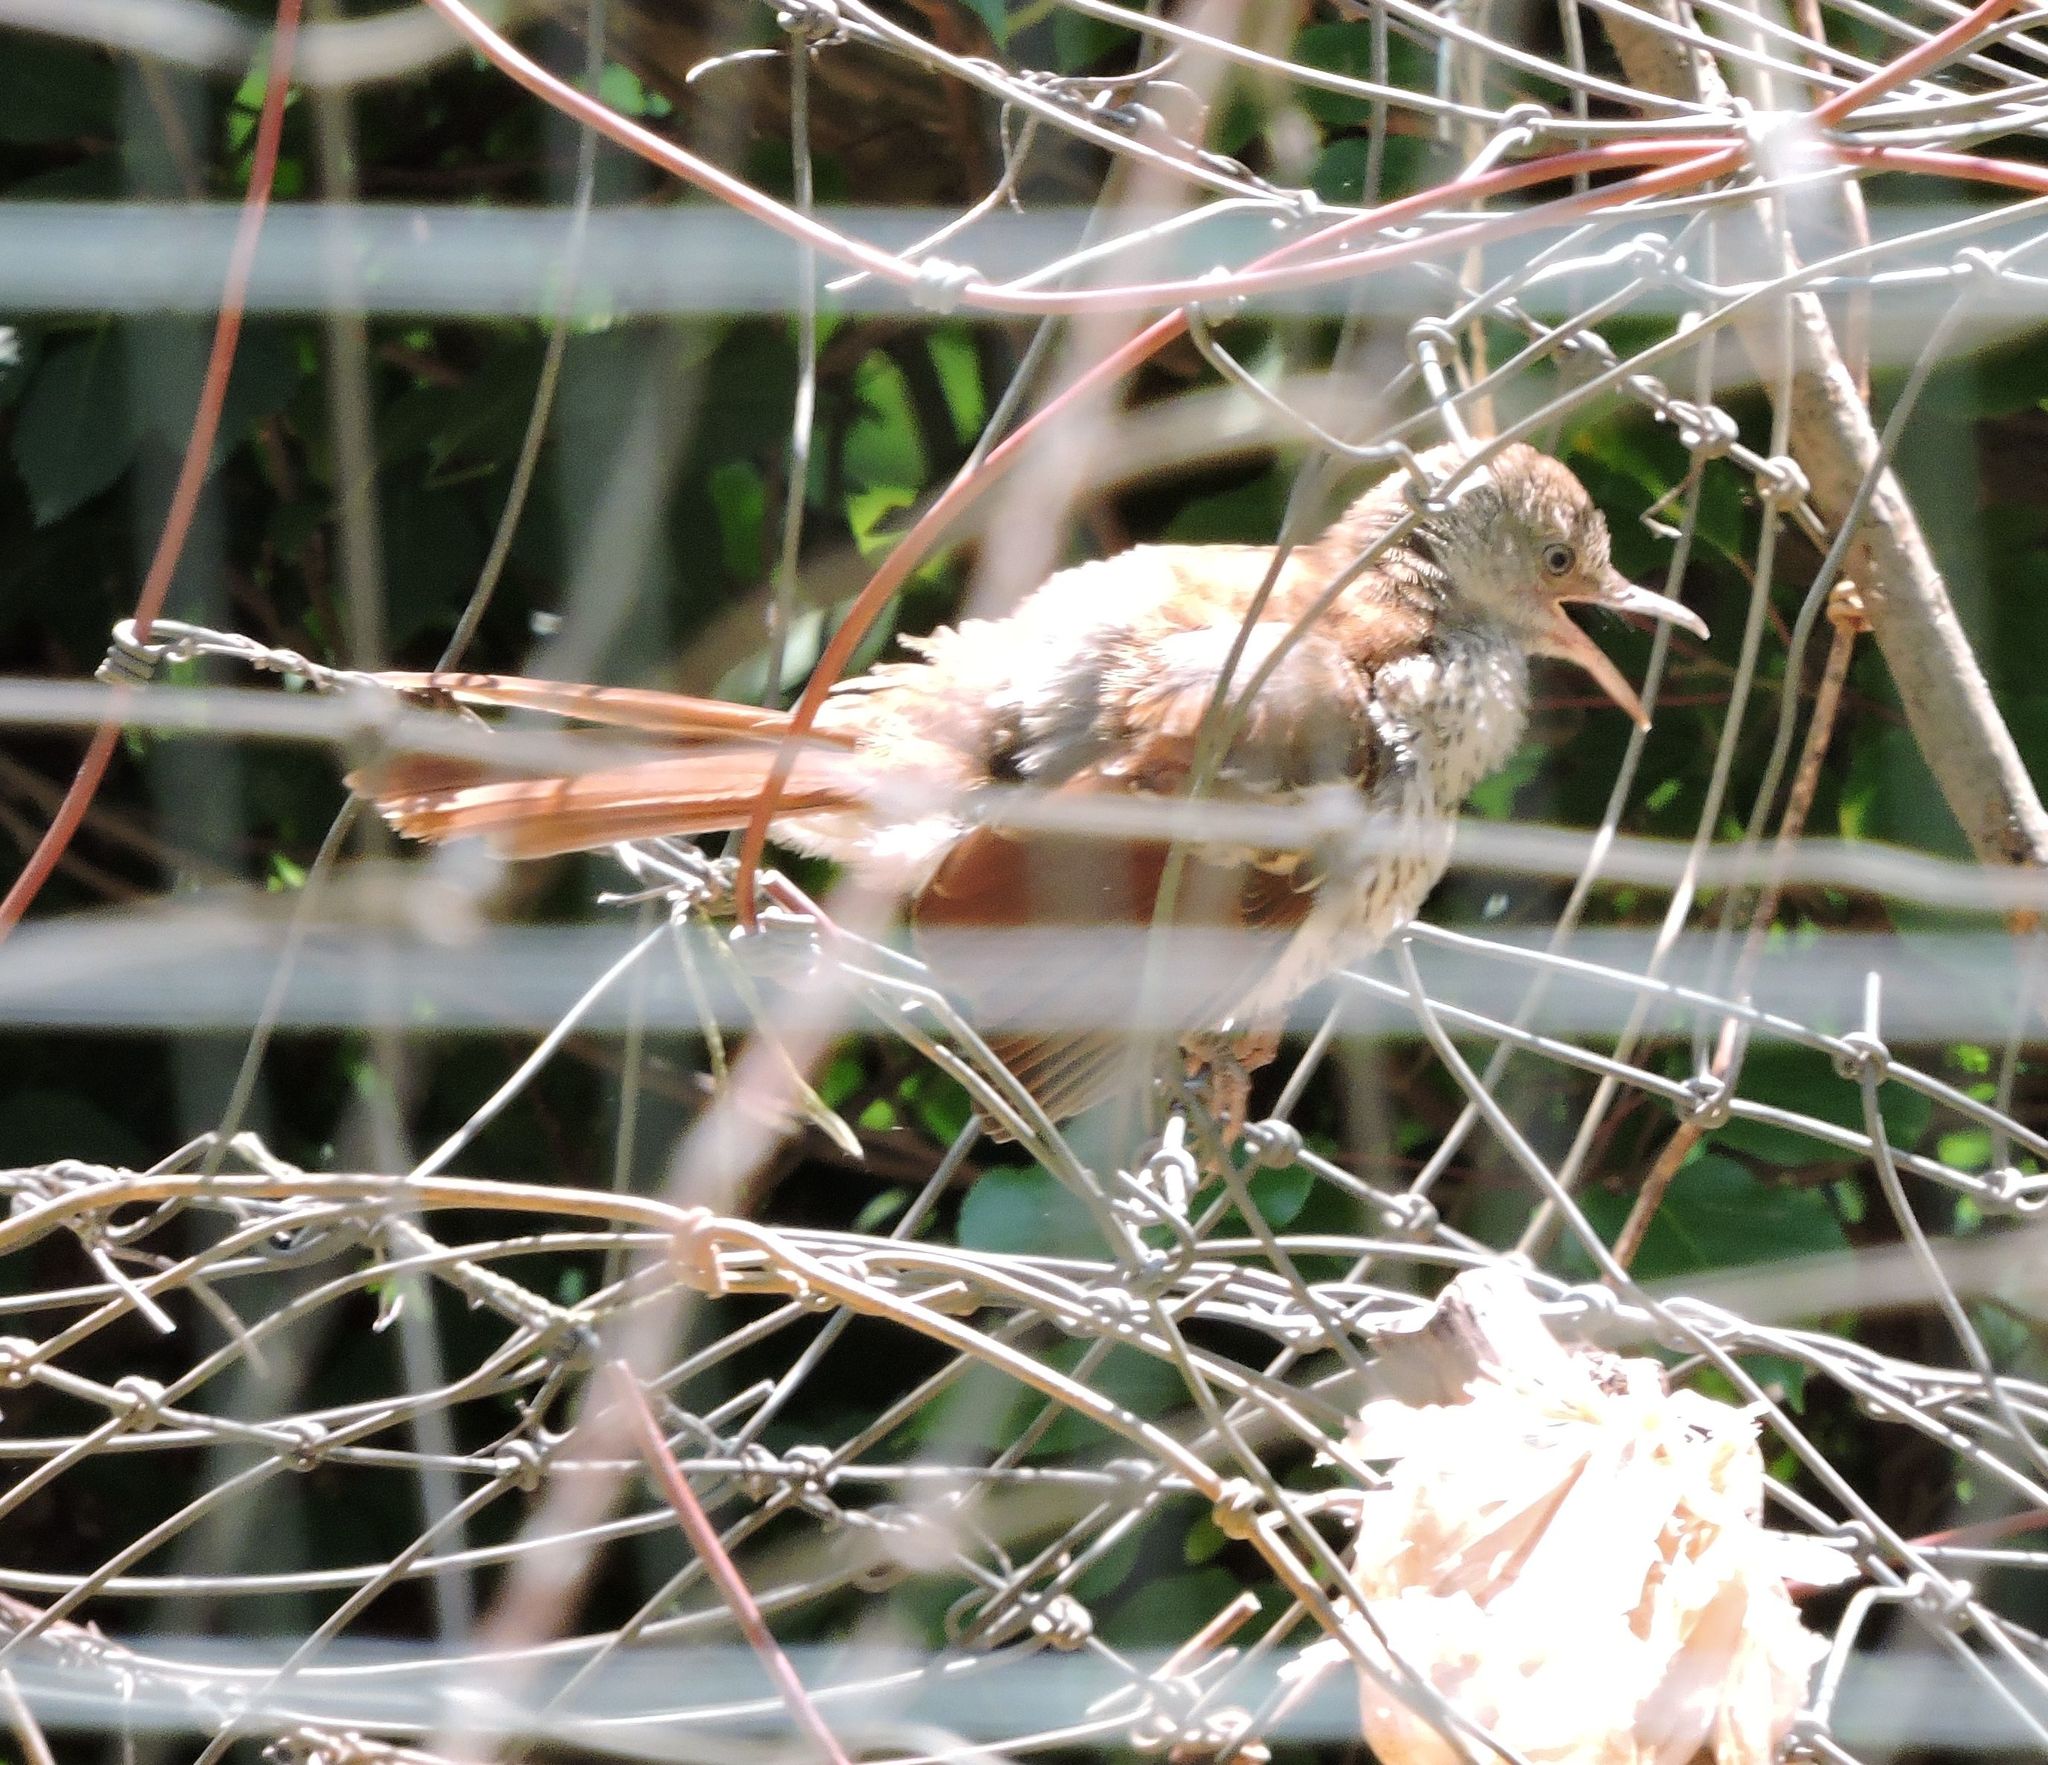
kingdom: Animalia
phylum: Chordata
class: Aves
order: Passeriformes
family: Mimidae
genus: Toxostoma
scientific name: Toxostoma rufum
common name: Brown thrasher
